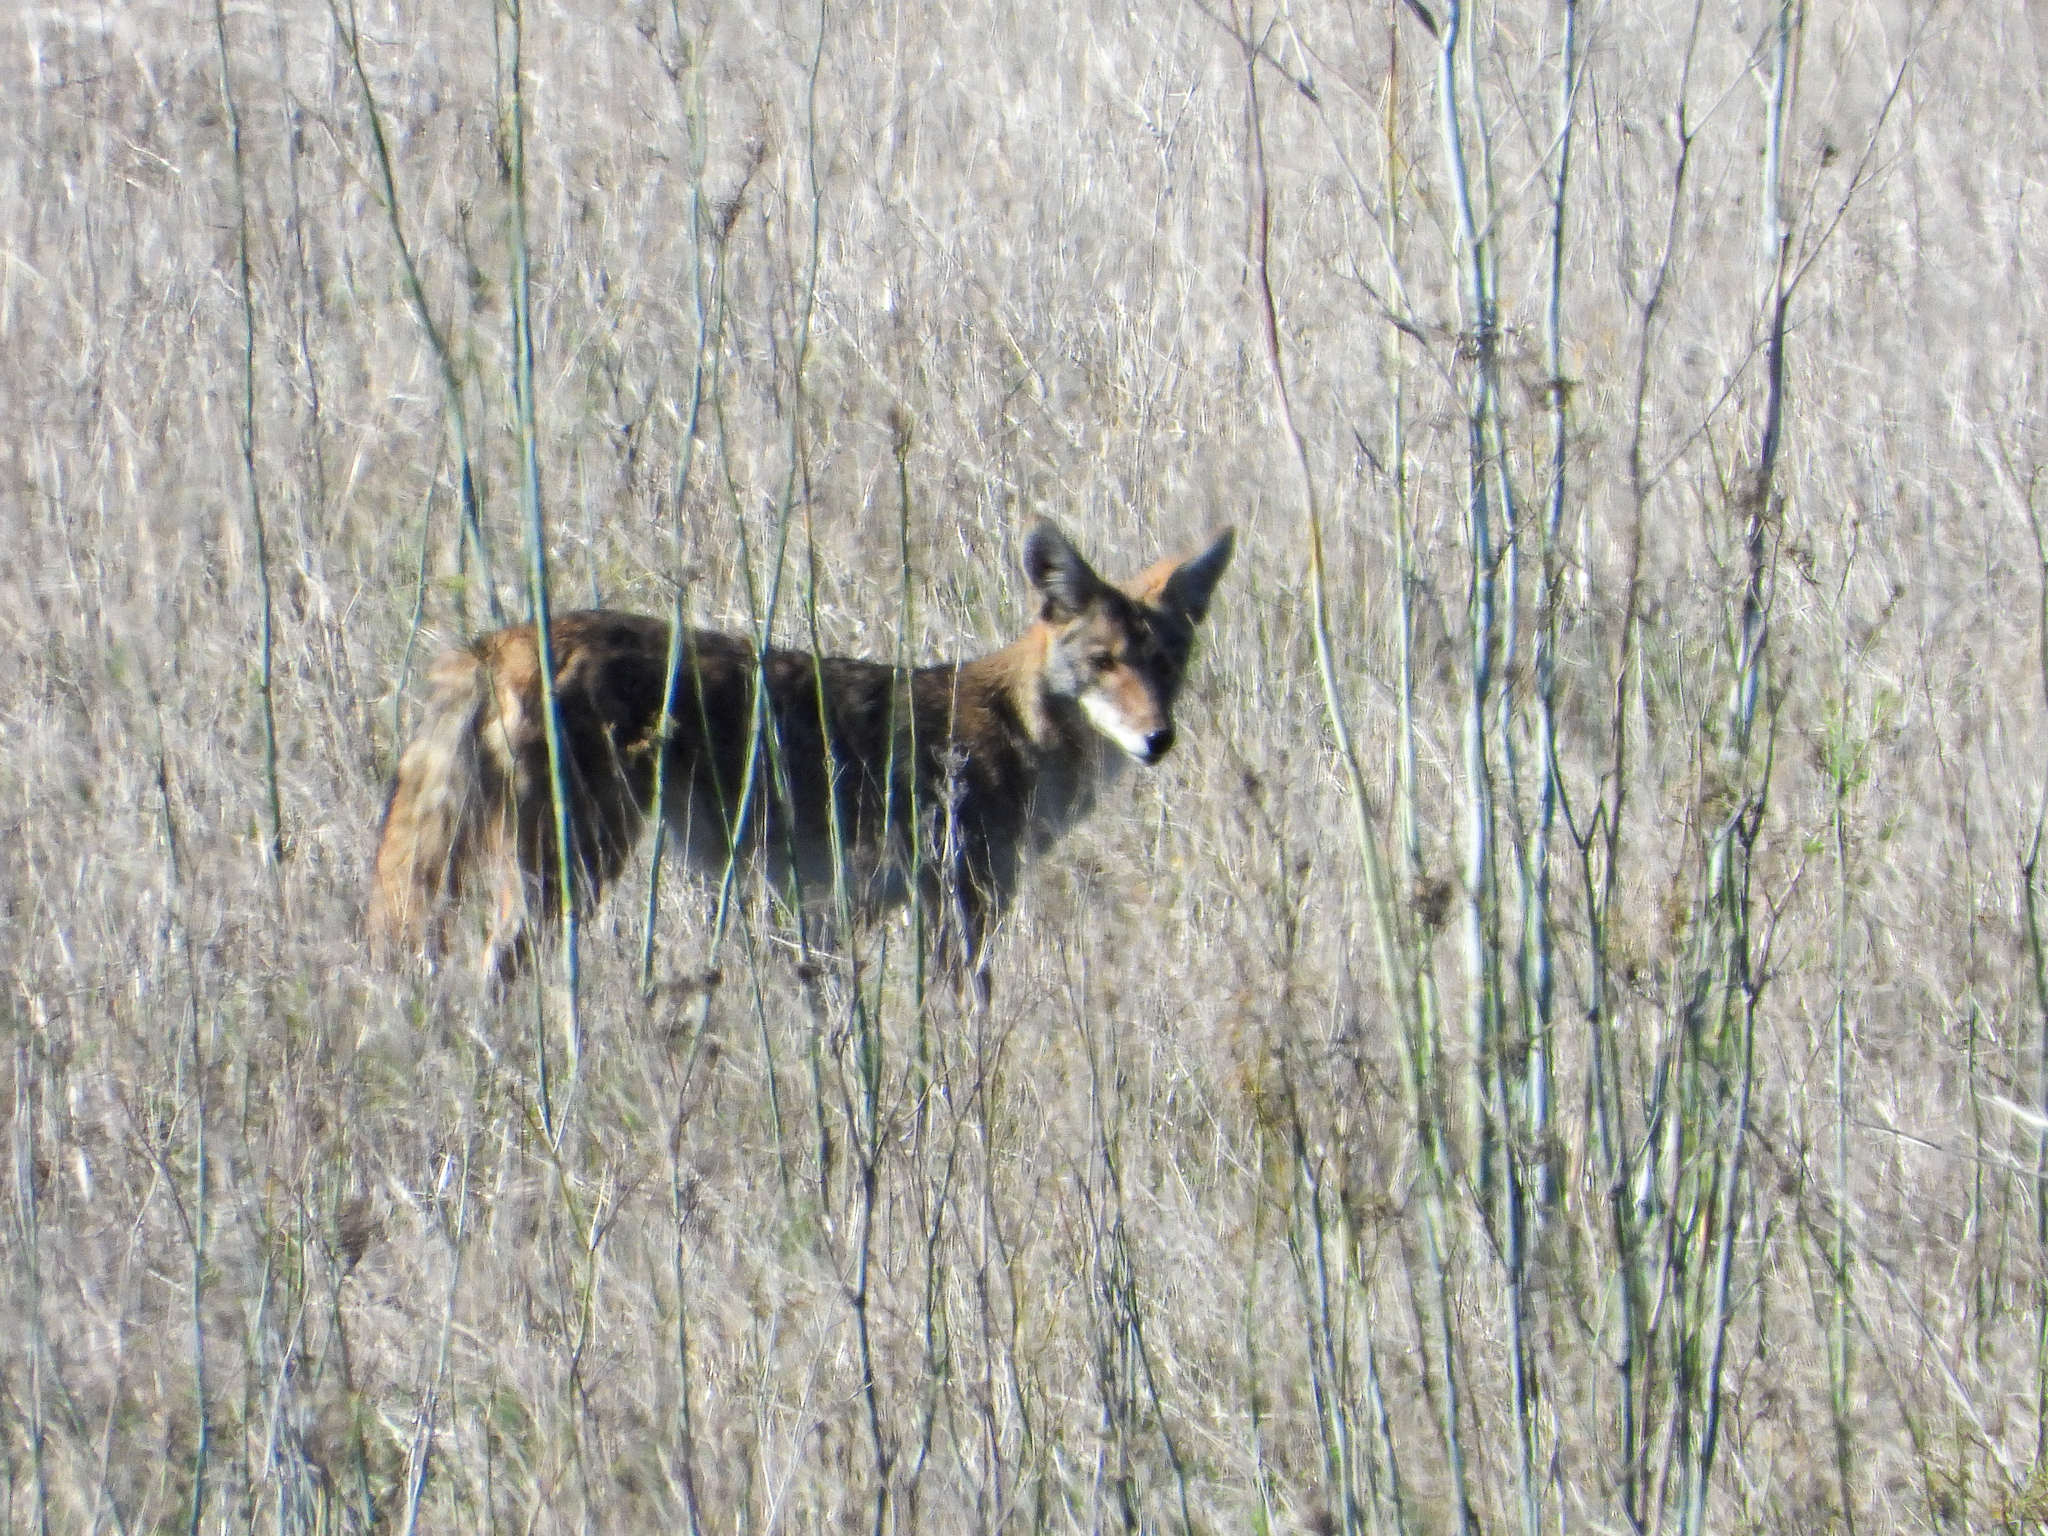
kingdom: Animalia
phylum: Chordata
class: Mammalia
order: Carnivora
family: Canidae
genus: Canis
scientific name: Canis latrans
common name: Coyote
